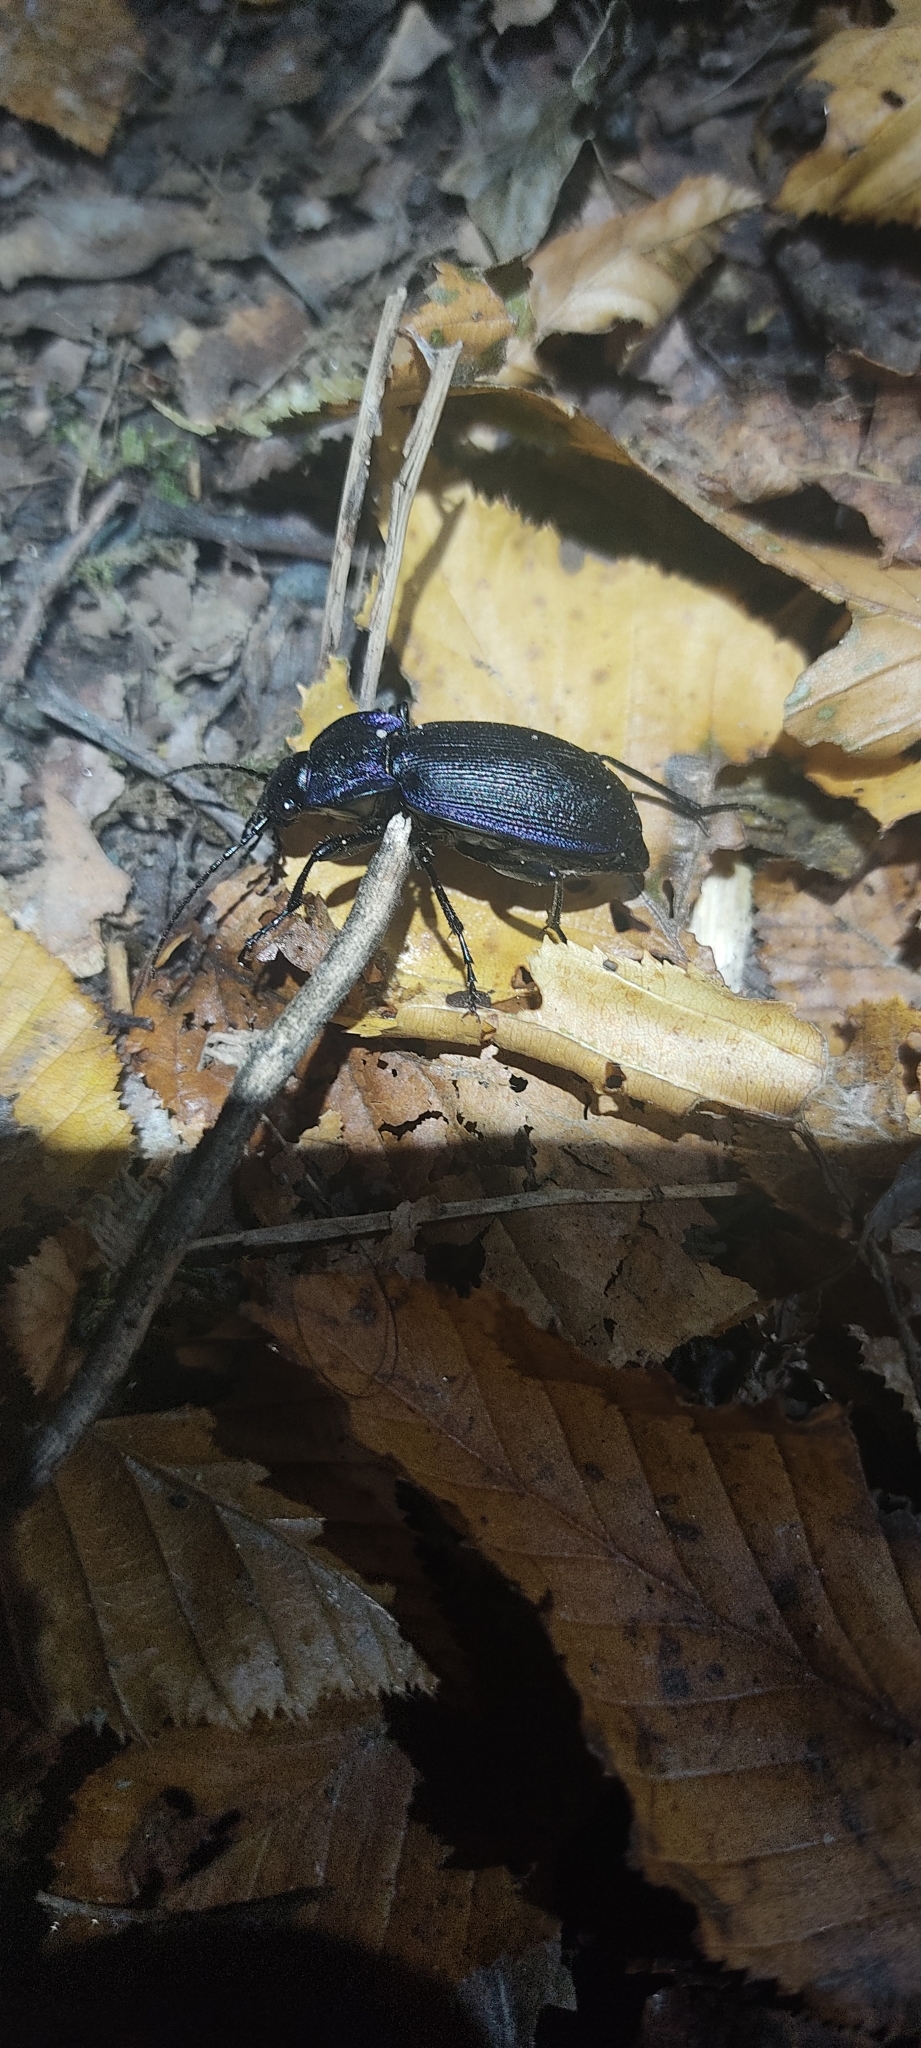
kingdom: Animalia
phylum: Arthropoda
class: Insecta
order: Coleoptera
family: Carabidae
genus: Carabus
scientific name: Carabus problematicus
